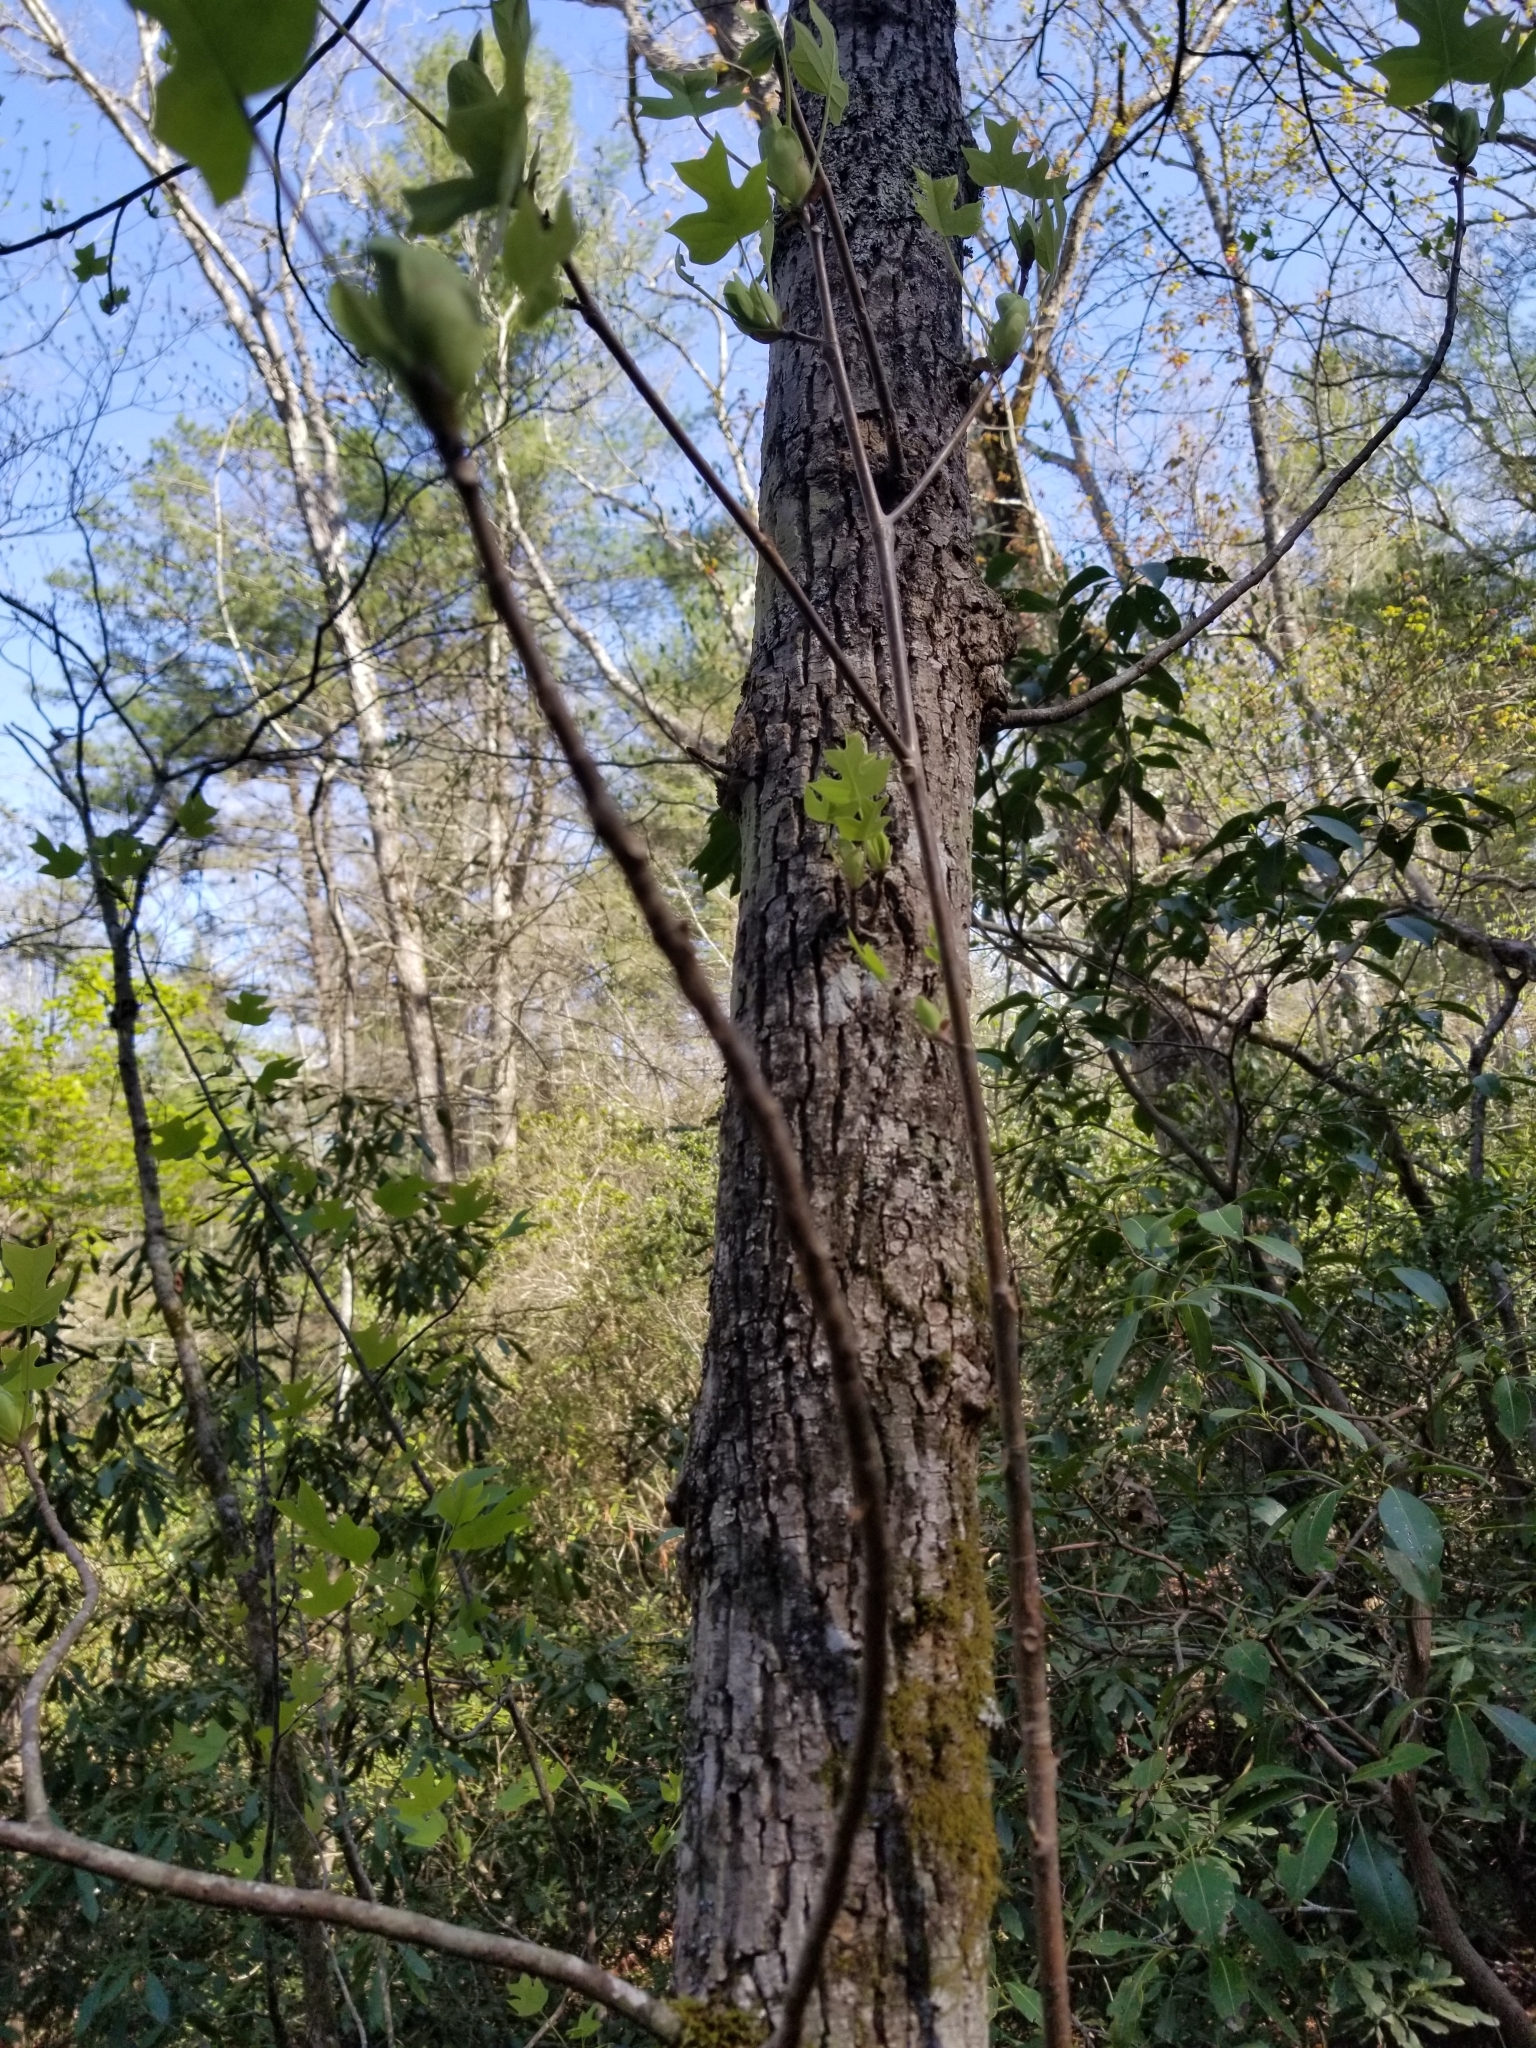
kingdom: Plantae
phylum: Tracheophyta
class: Magnoliopsida
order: Magnoliales
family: Magnoliaceae
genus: Liriodendron
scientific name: Liriodendron tulipifera
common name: Tulip tree
